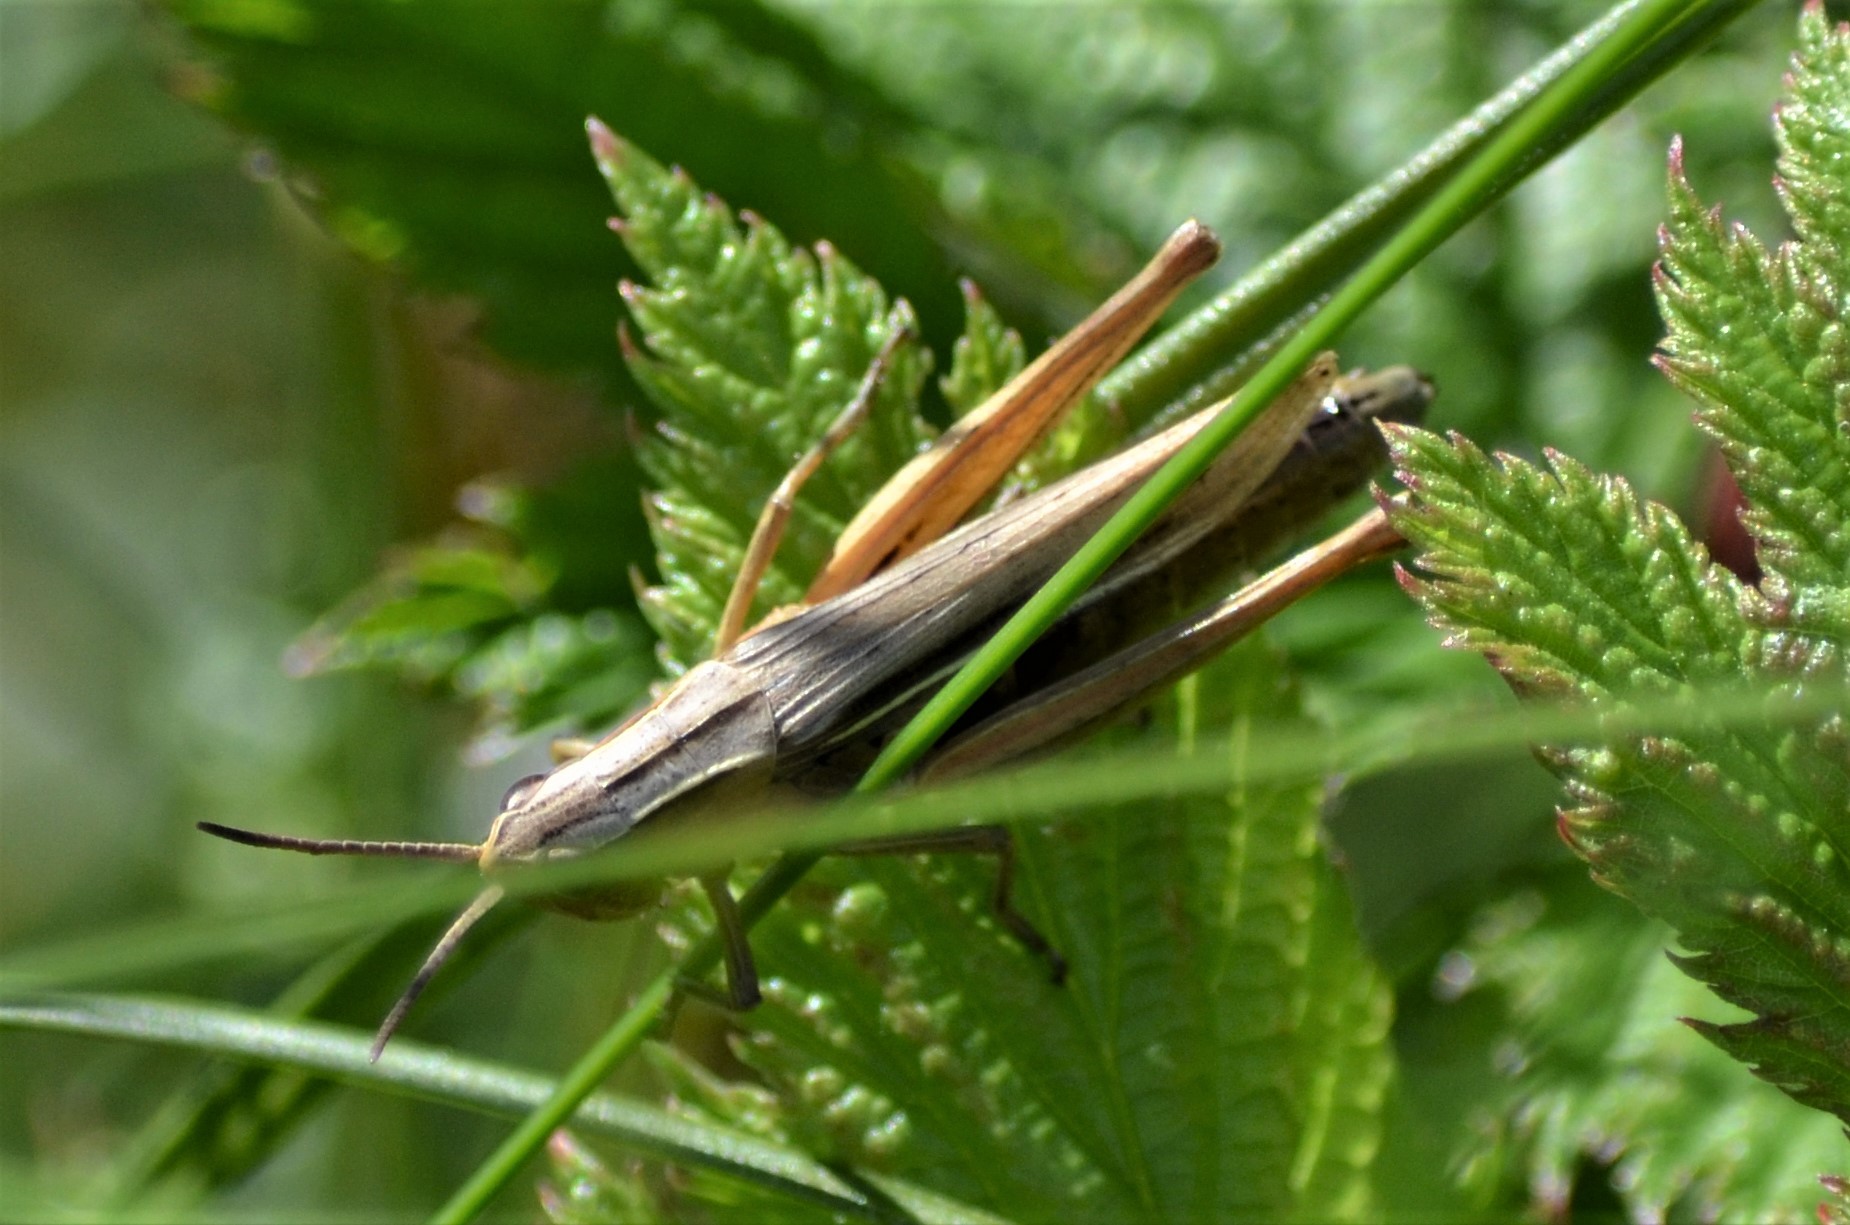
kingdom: Animalia
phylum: Arthropoda
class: Insecta
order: Orthoptera
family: Acrididae
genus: Chorthippus
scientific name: Chorthippus albomarginatus
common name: Lesser marsh grasshopper
